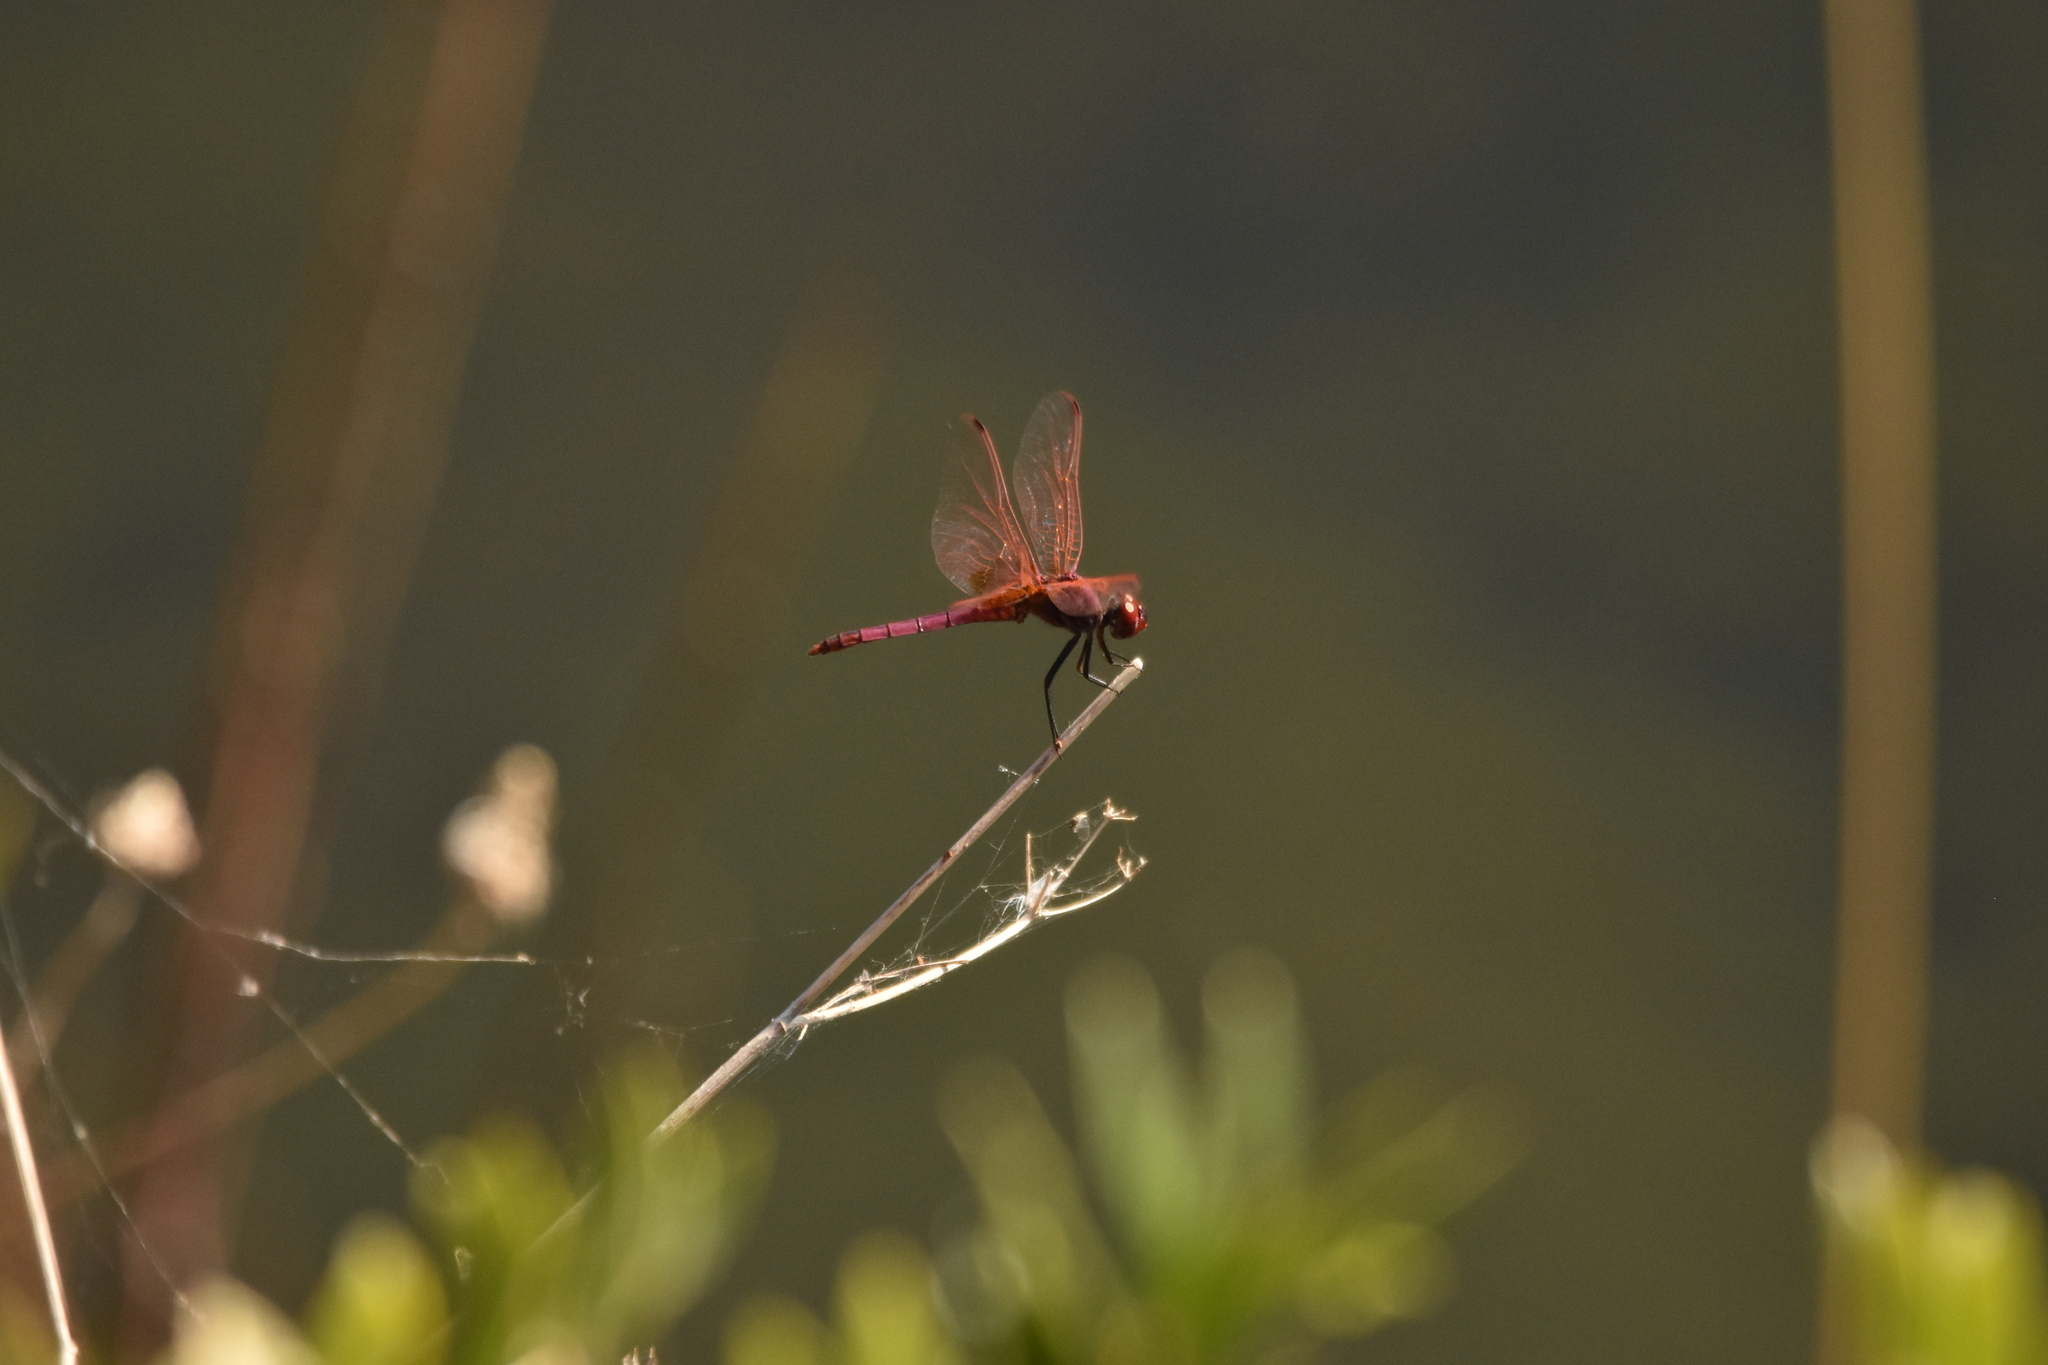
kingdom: Animalia
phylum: Arthropoda
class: Insecta
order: Odonata
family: Libellulidae
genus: Trithemis
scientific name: Trithemis annulata
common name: Violet dropwing
